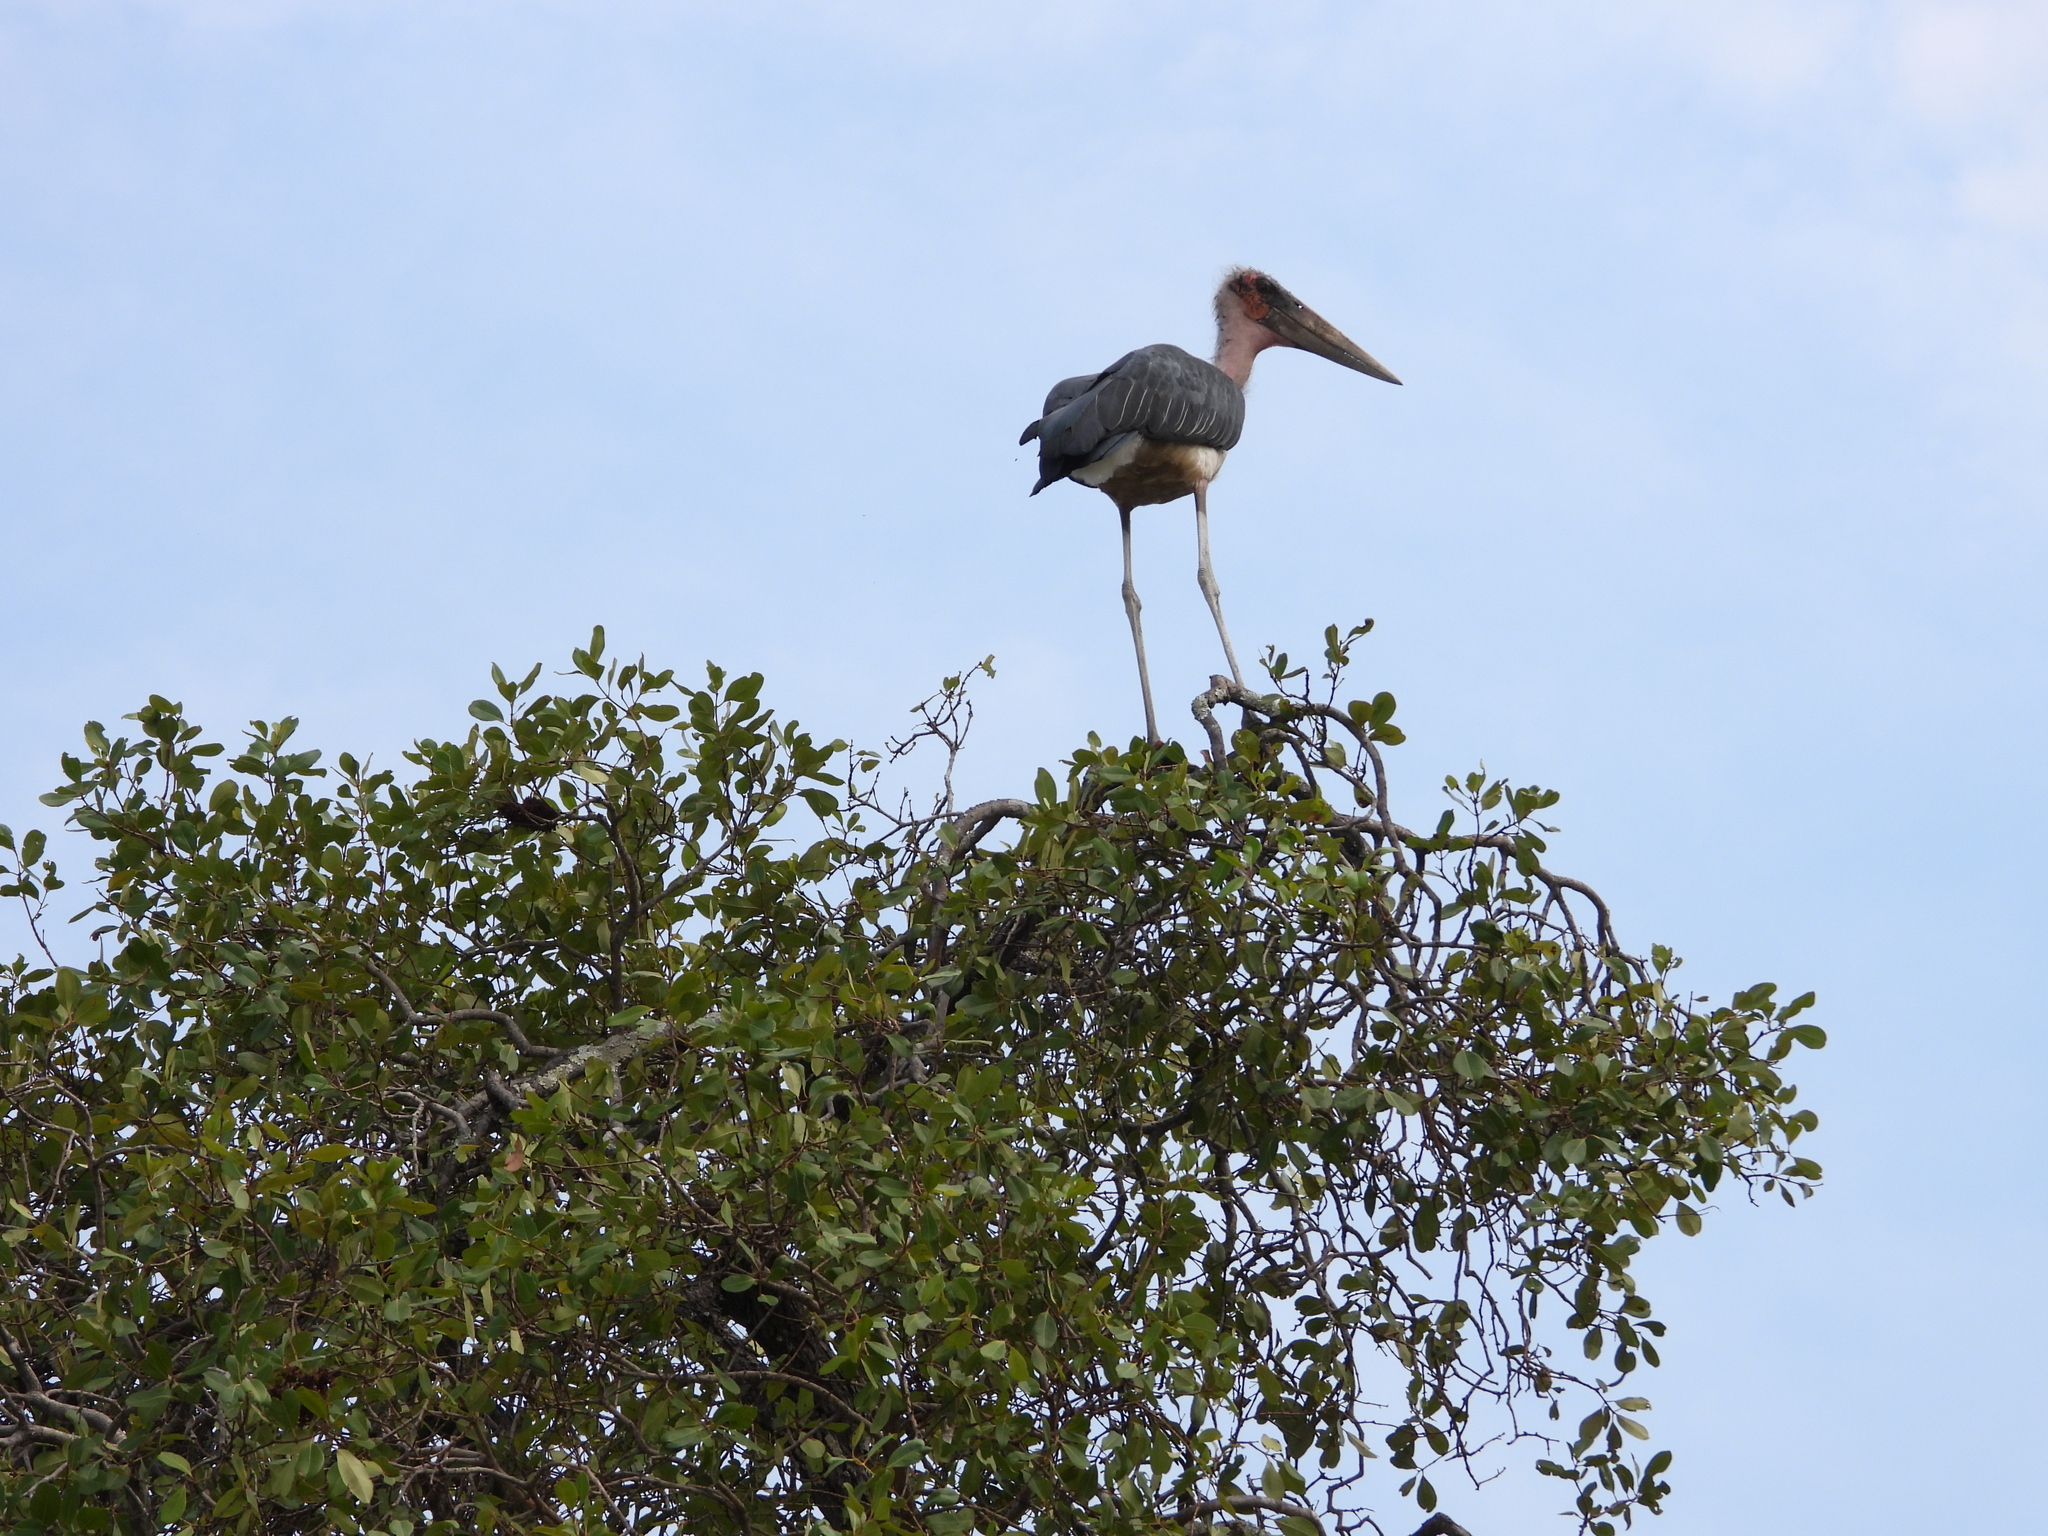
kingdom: Animalia
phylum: Chordata
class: Aves
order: Ciconiiformes
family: Ciconiidae
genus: Leptoptilos
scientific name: Leptoptilos crumenifer
